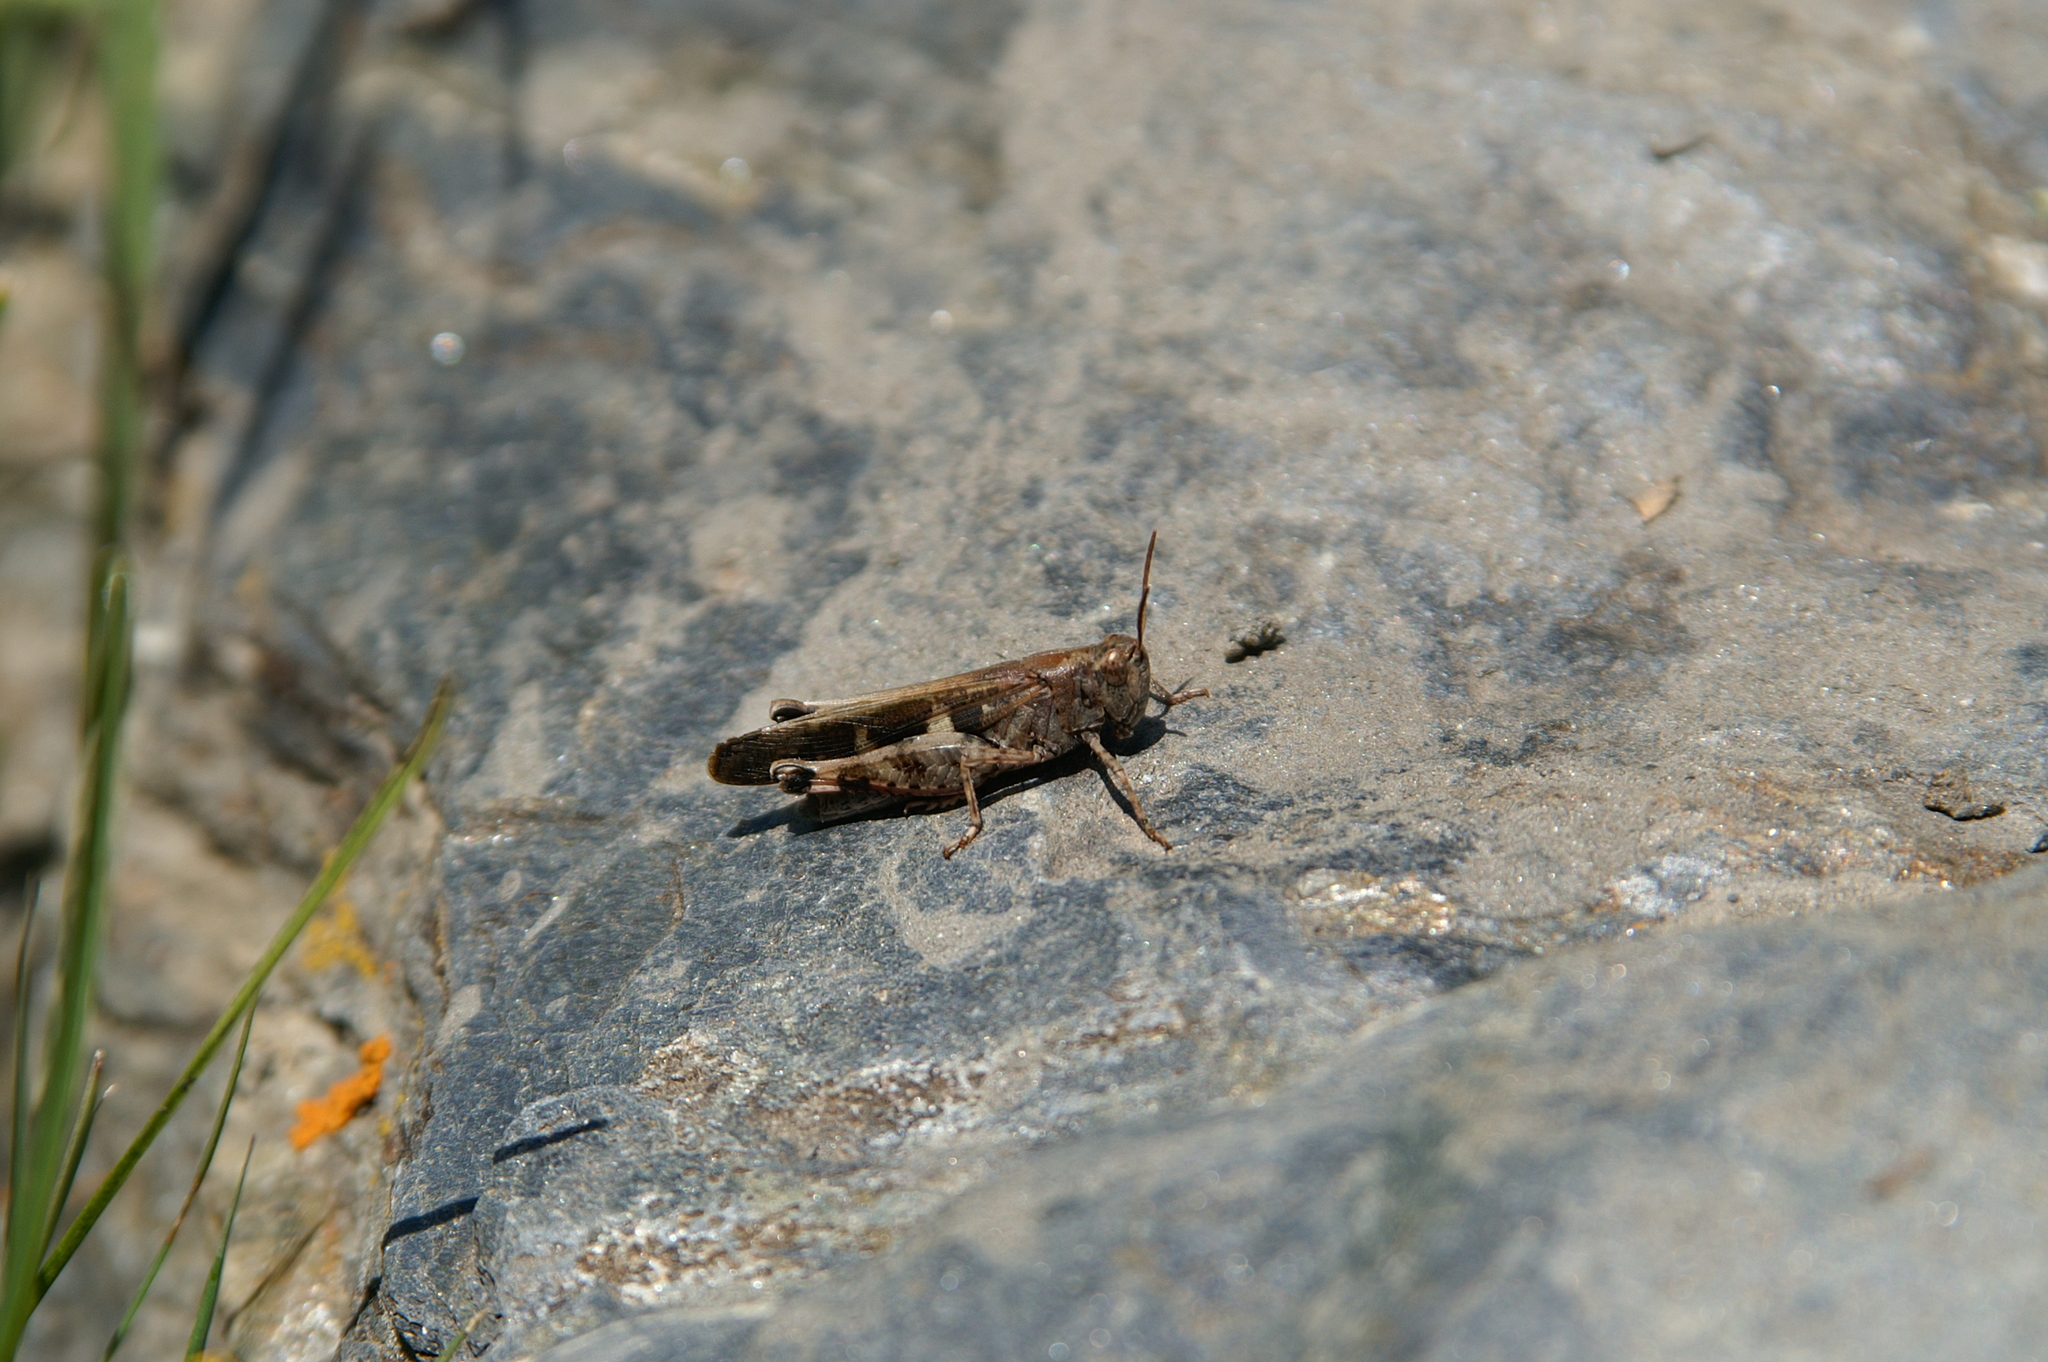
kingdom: Animalia
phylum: Arthropoda
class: Insecta
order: Orthoptera
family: Acrididae
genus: Aiolopus
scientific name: Aiolopus strepens
